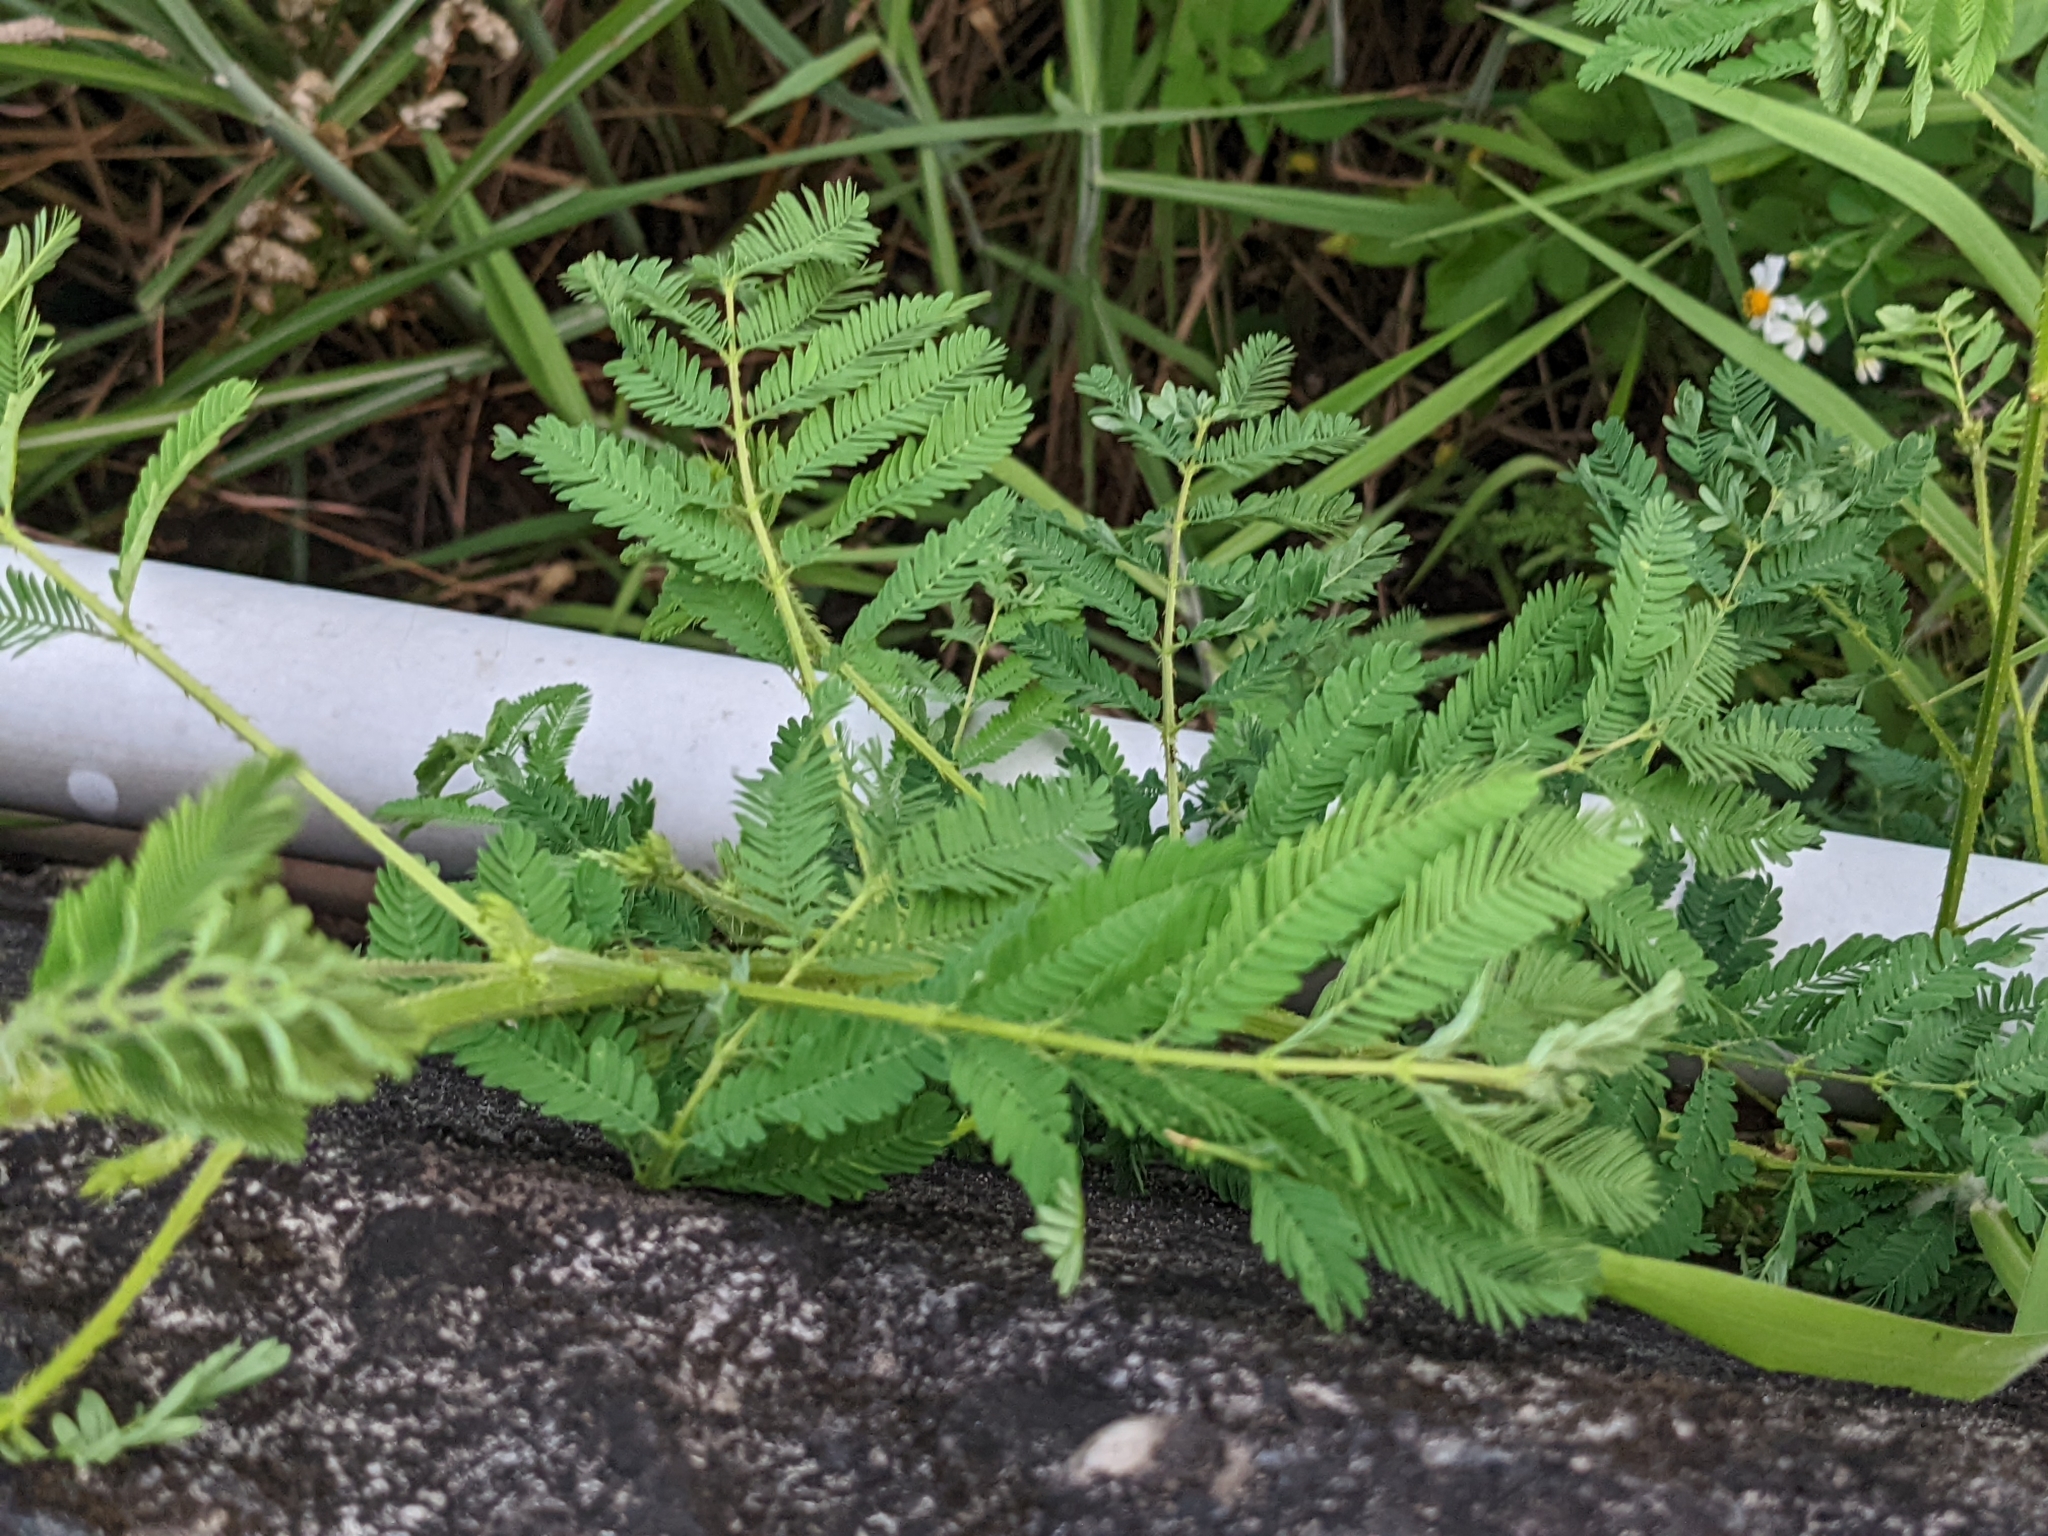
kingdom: Plantae
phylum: Tracheophyta
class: Magnoliopsida
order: Fabales
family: Fabaceae
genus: Mimosa
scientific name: Mimosa diplotricha
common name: Giant sensitive-plant
